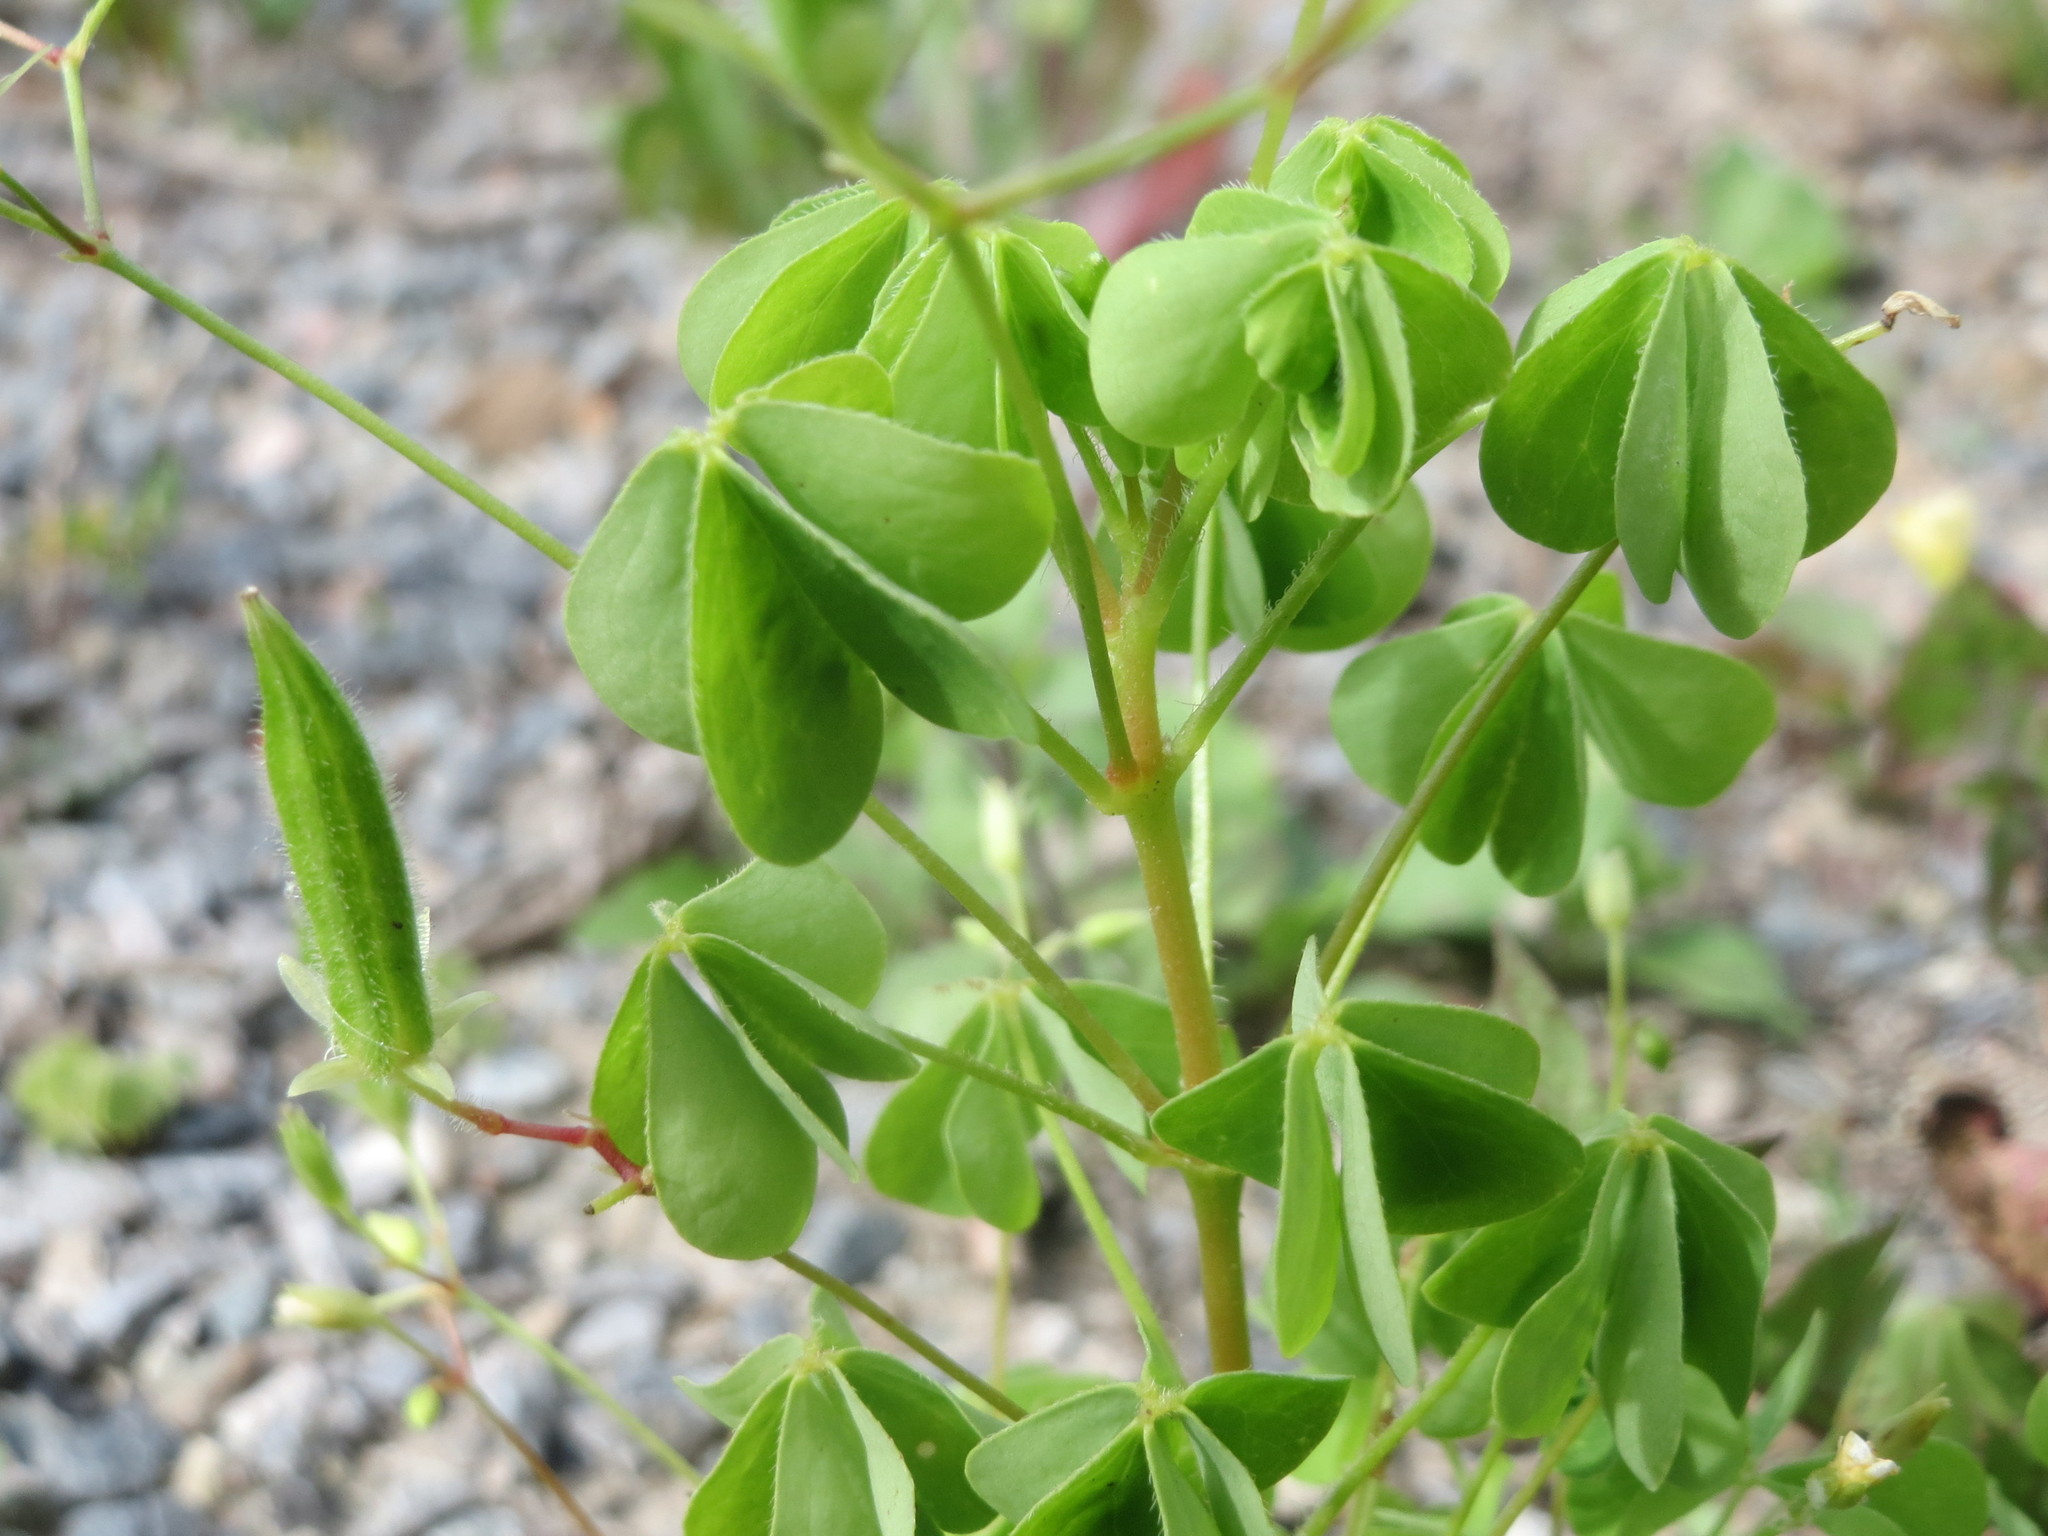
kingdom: Plantae
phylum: Tracheophyta
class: Magnoliopsida
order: Oxalidales
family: Oxalidaceae
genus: Oxalis
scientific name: Oxalis stricta
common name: Upright yellow-sorrel
